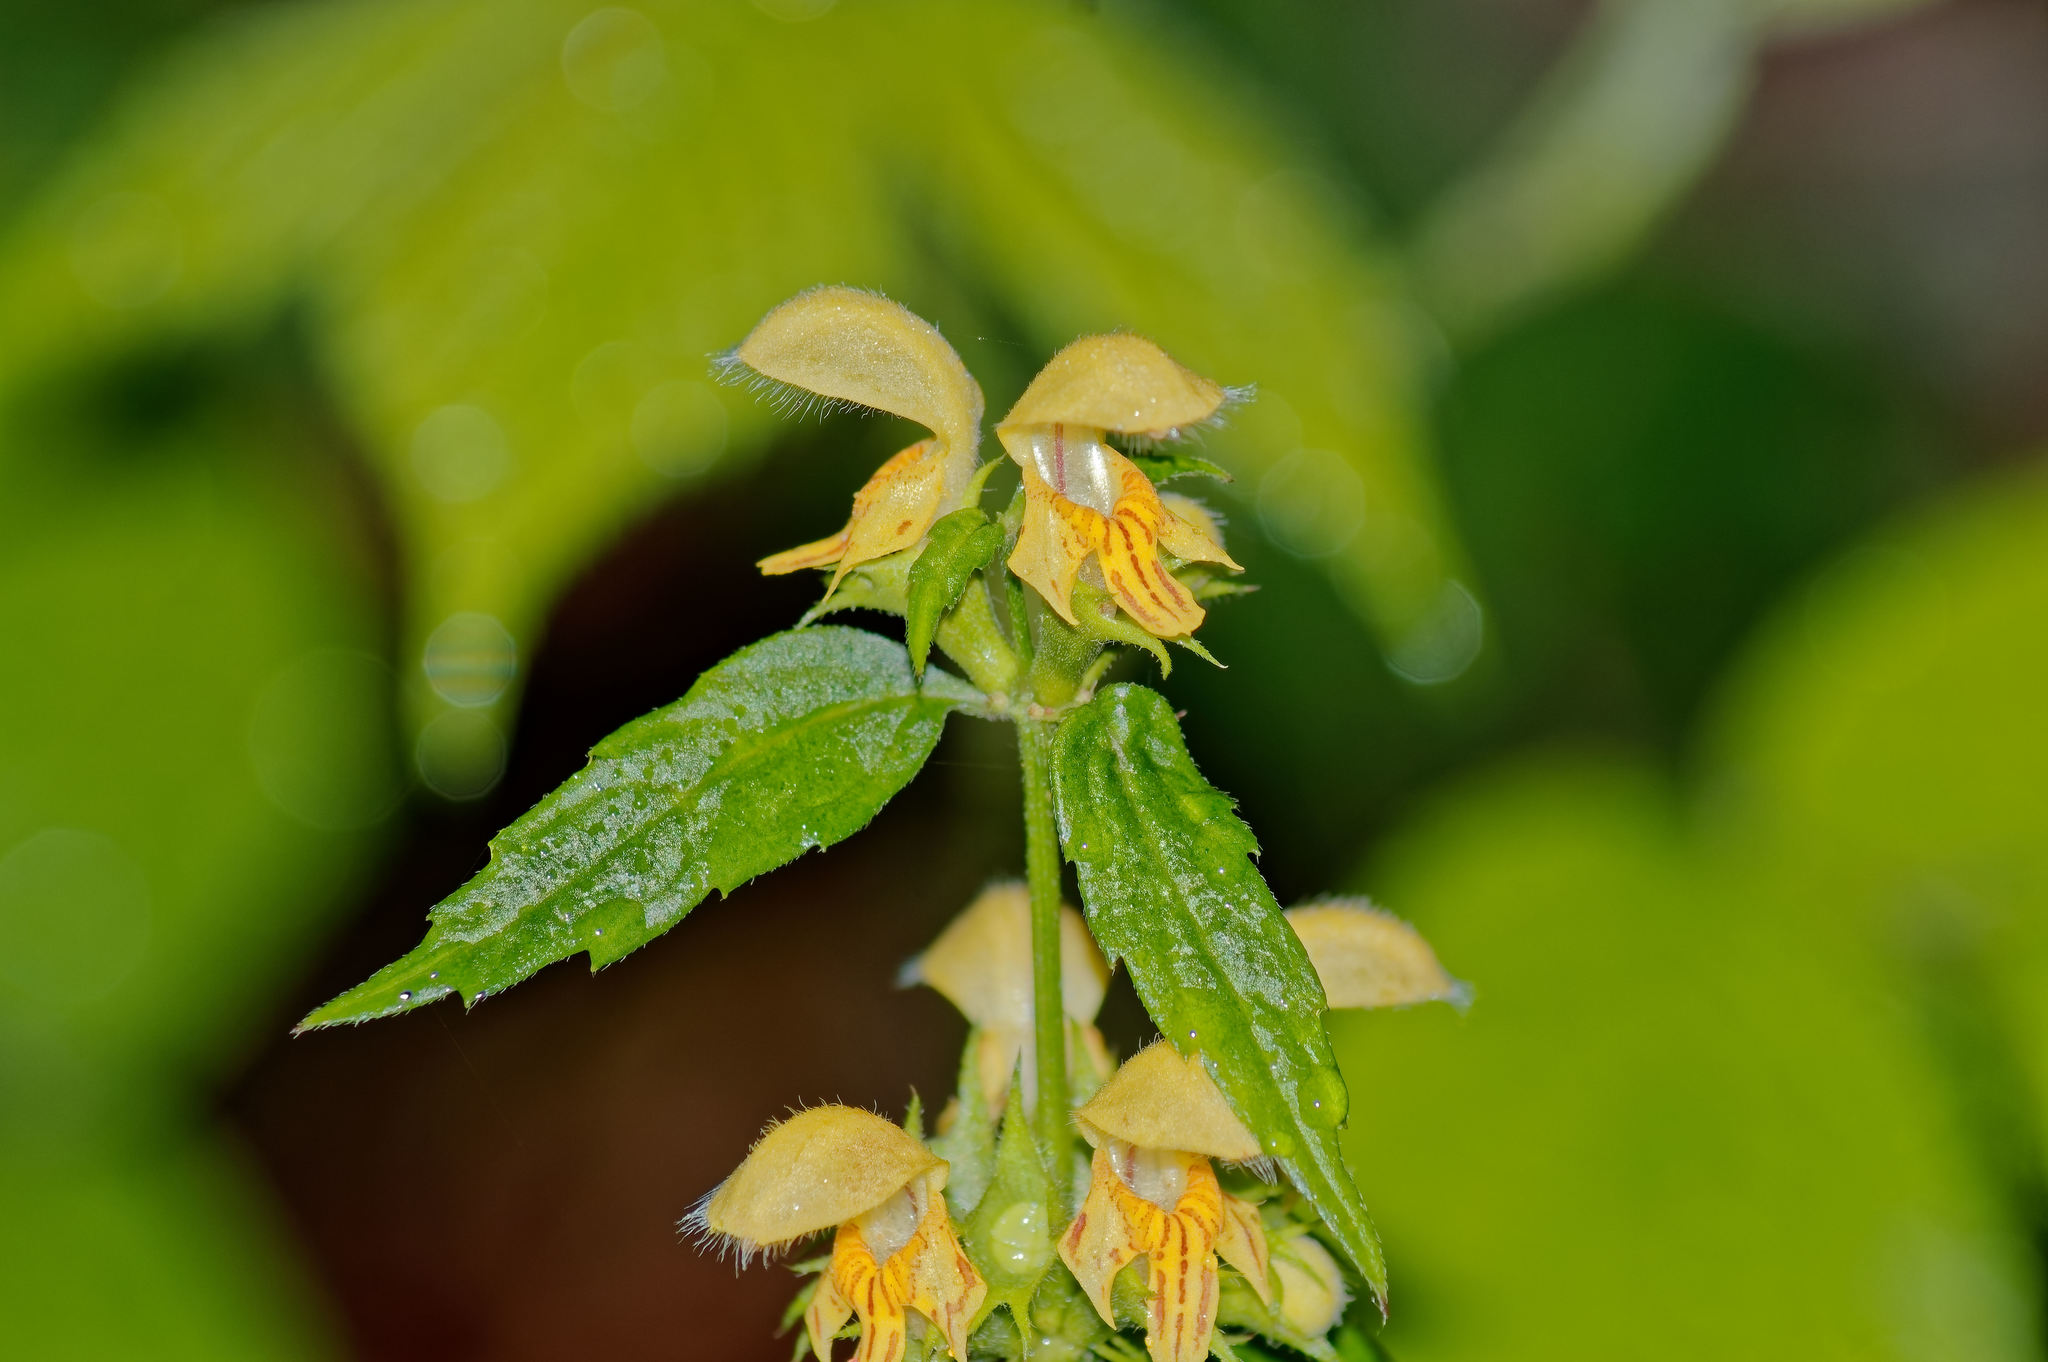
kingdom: Plantae
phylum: Tracheophyta
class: Magnoliopsida
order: Lamiales
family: Lamiaceae
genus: Lamium
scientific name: Lamium galeobdolon
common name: Yellow archangel
